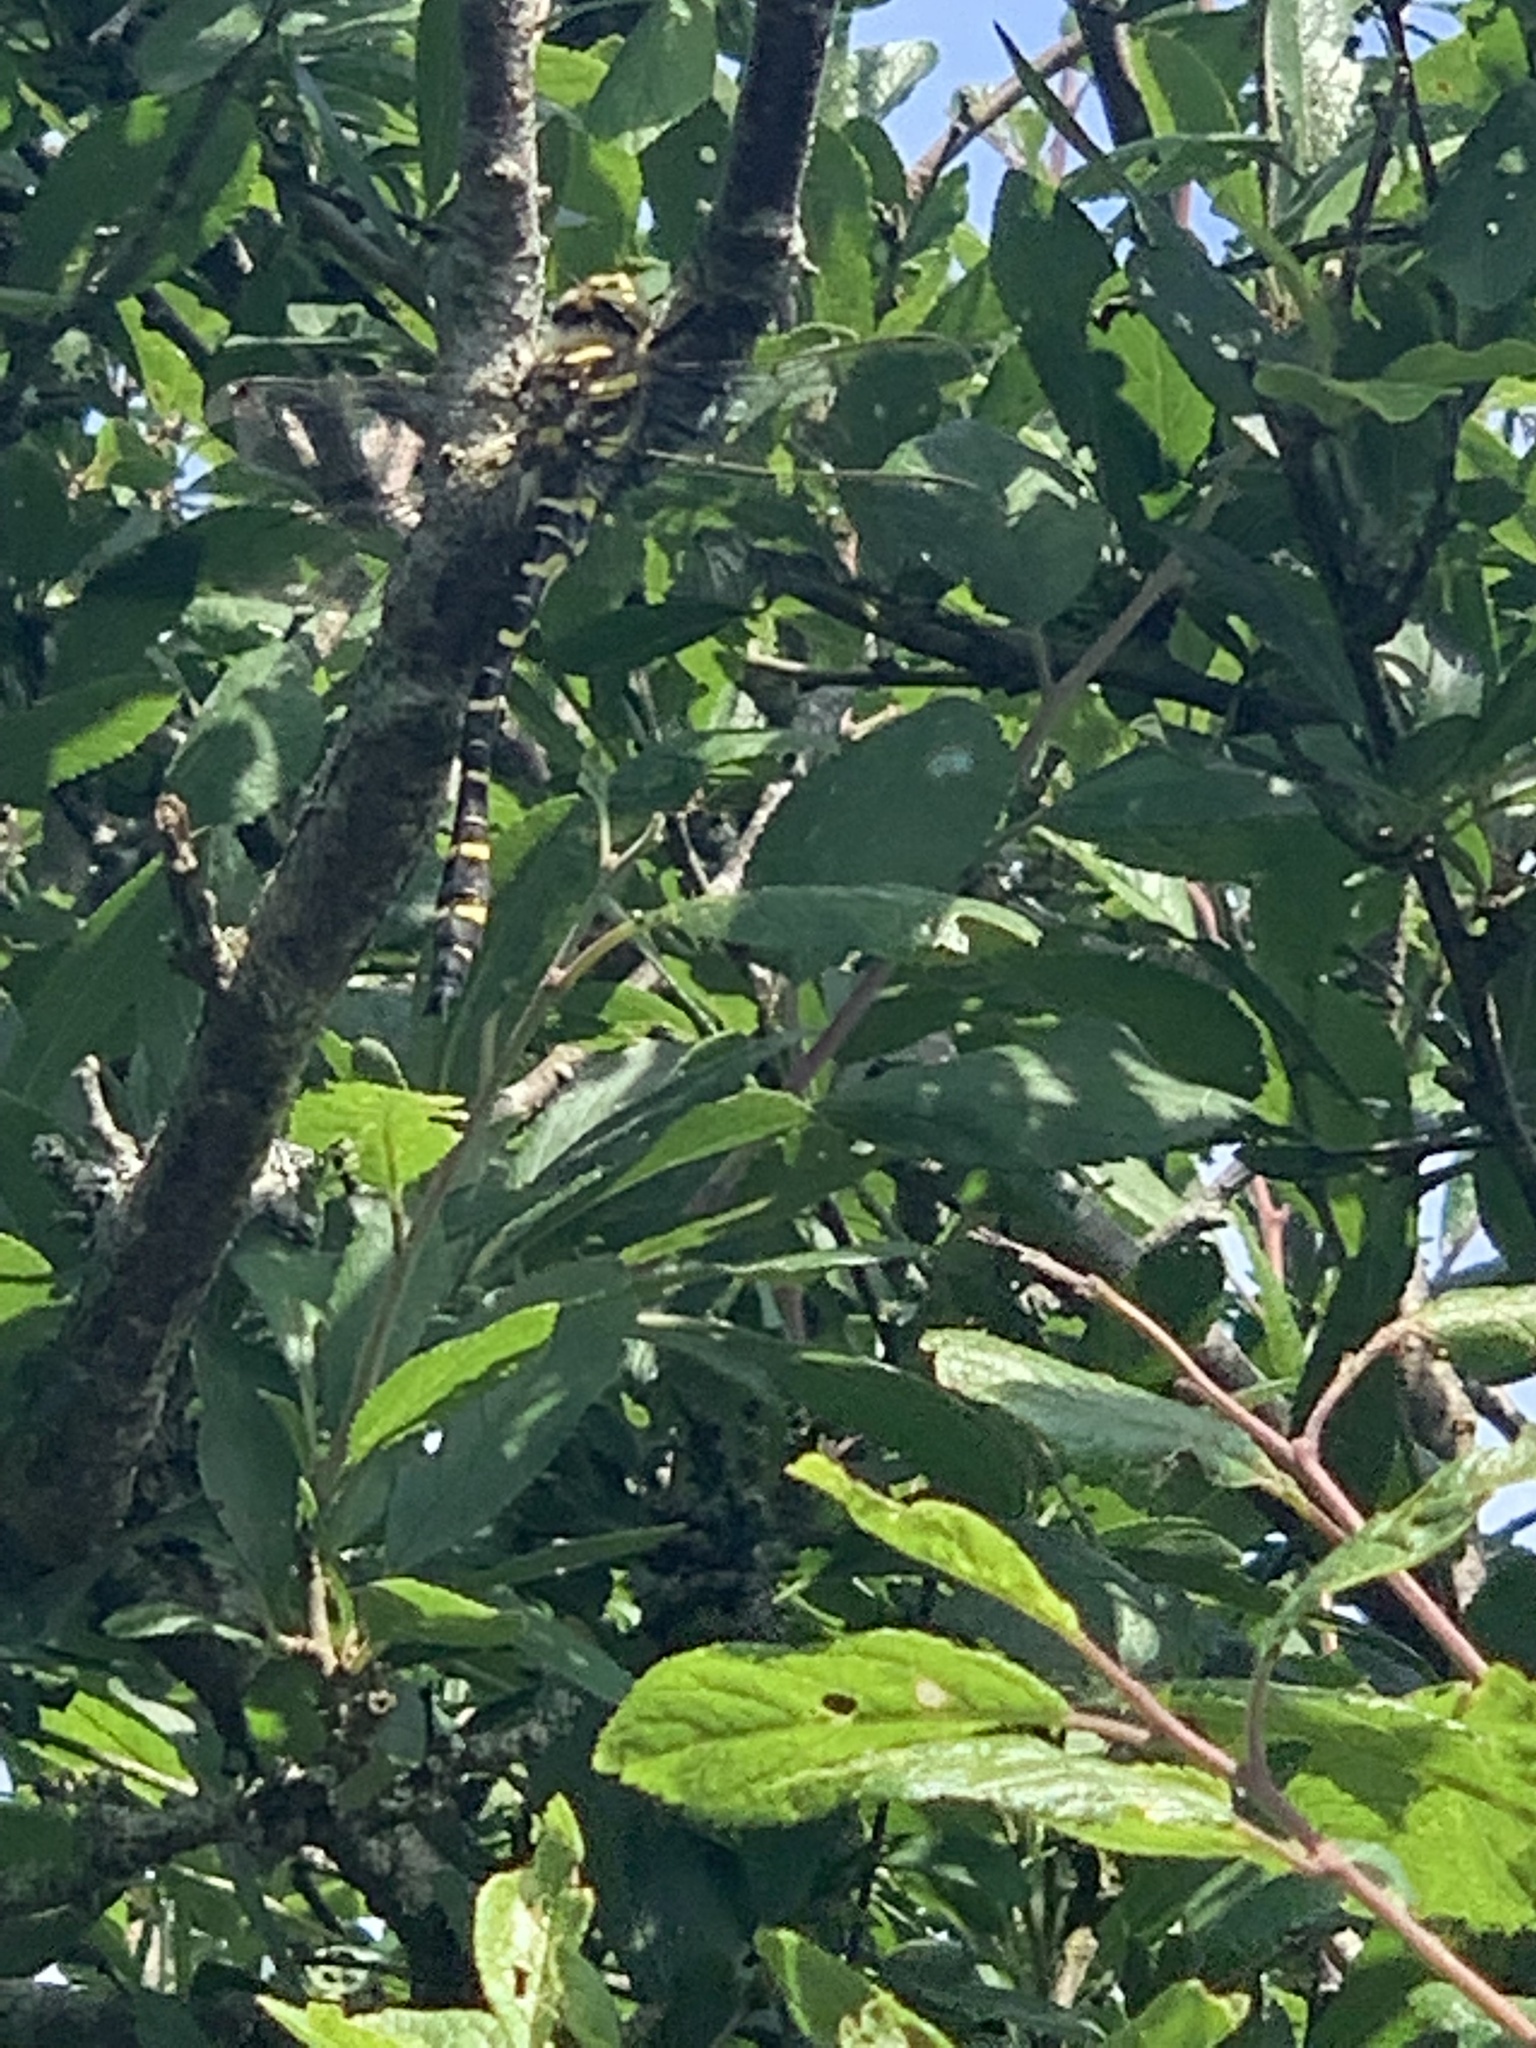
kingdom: Animalia
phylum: Arthropoda
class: Insecta
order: Odonata
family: Cordulegastridae
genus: Cordulegaster
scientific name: Cordulegaster boltonii
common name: Golden-ringed dragonfly
